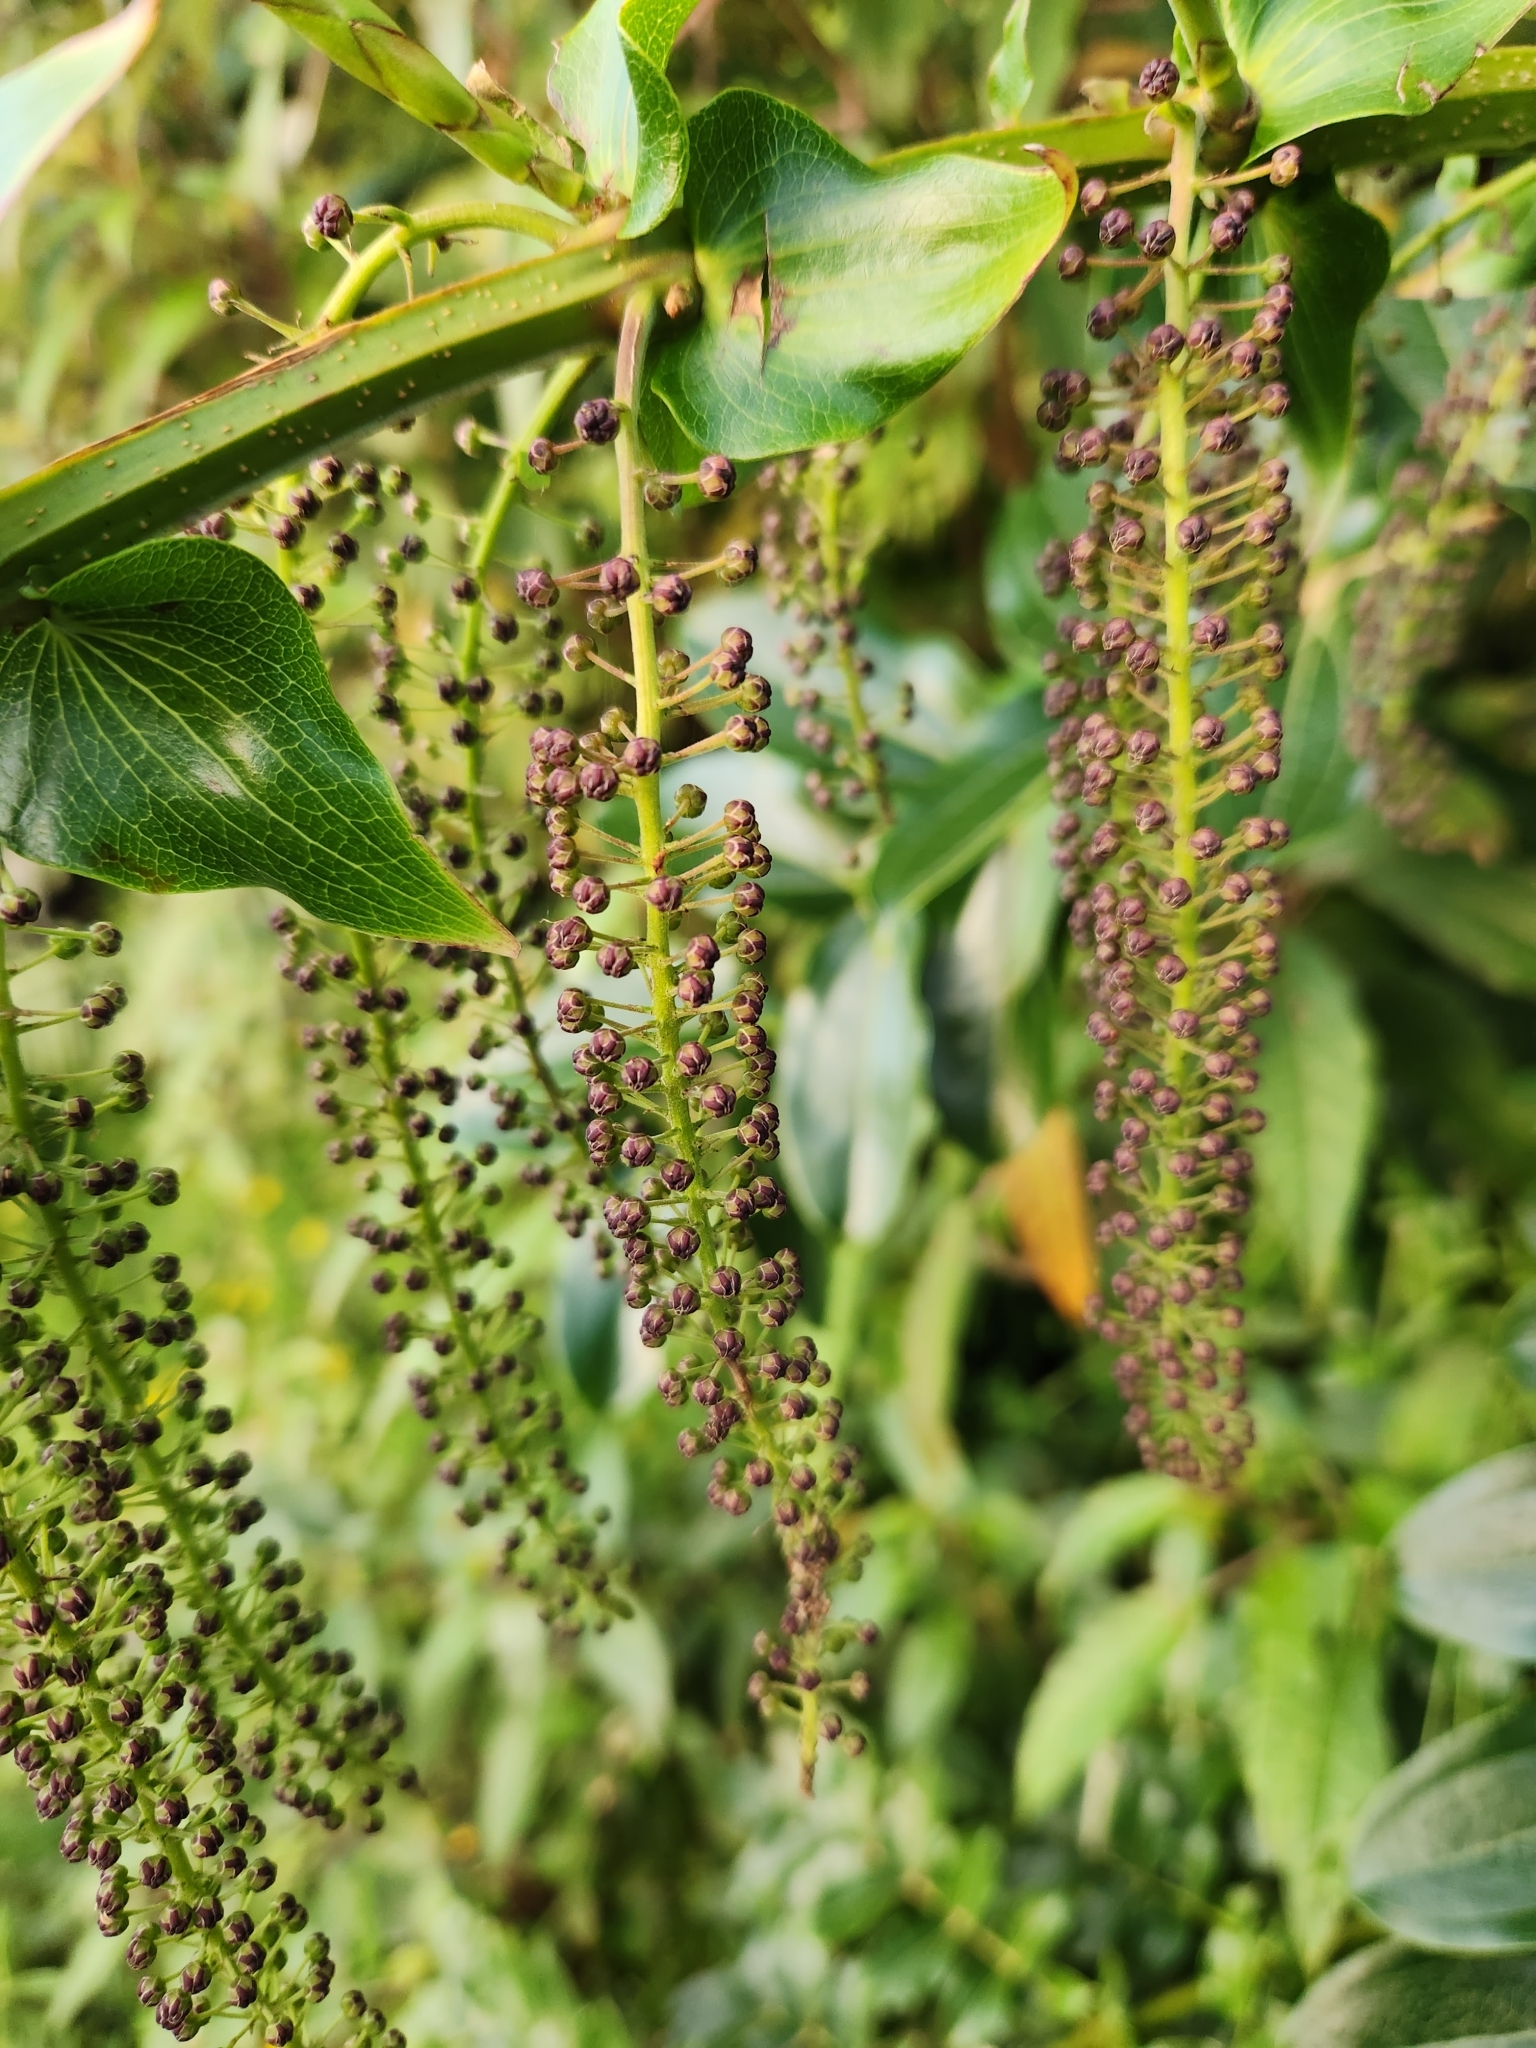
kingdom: Plantae
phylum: Tracheophyta
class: Magnoliopsida
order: Cucurbitales
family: Coriariaceae
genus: Coriaria
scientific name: Coriaria arborea
